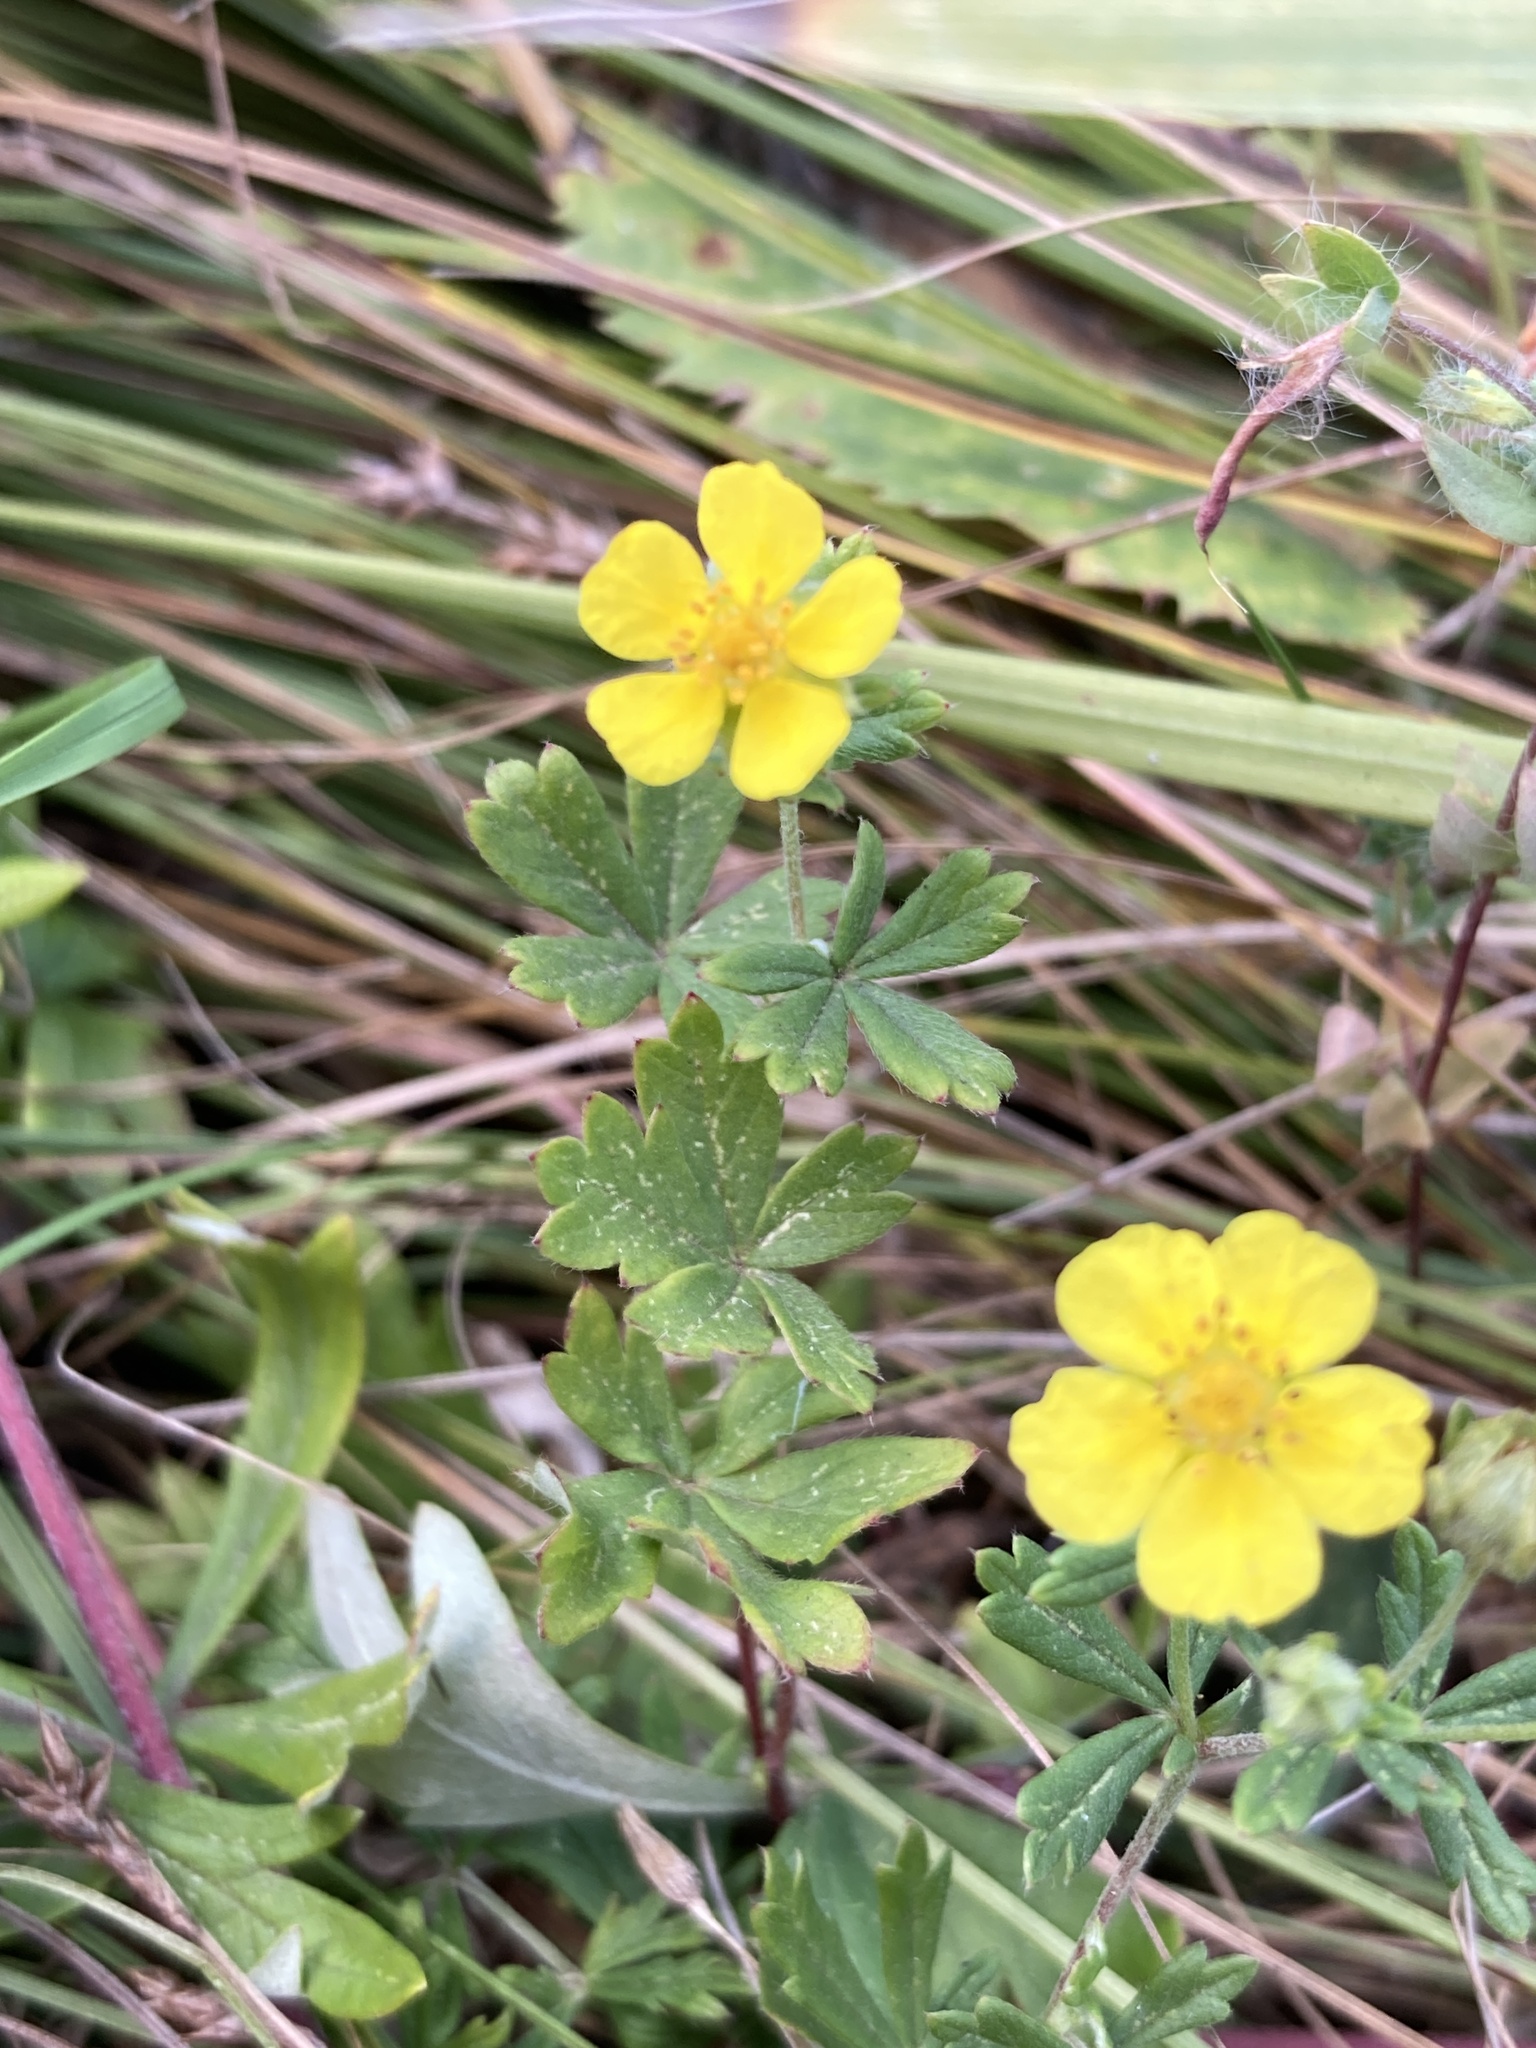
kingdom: Plantae
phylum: Tracheophyta
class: Magnoliopsida
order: Rosales
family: Rosaceae
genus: Potentilla
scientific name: Potentilla argentea
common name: Hoary cinquefoil
